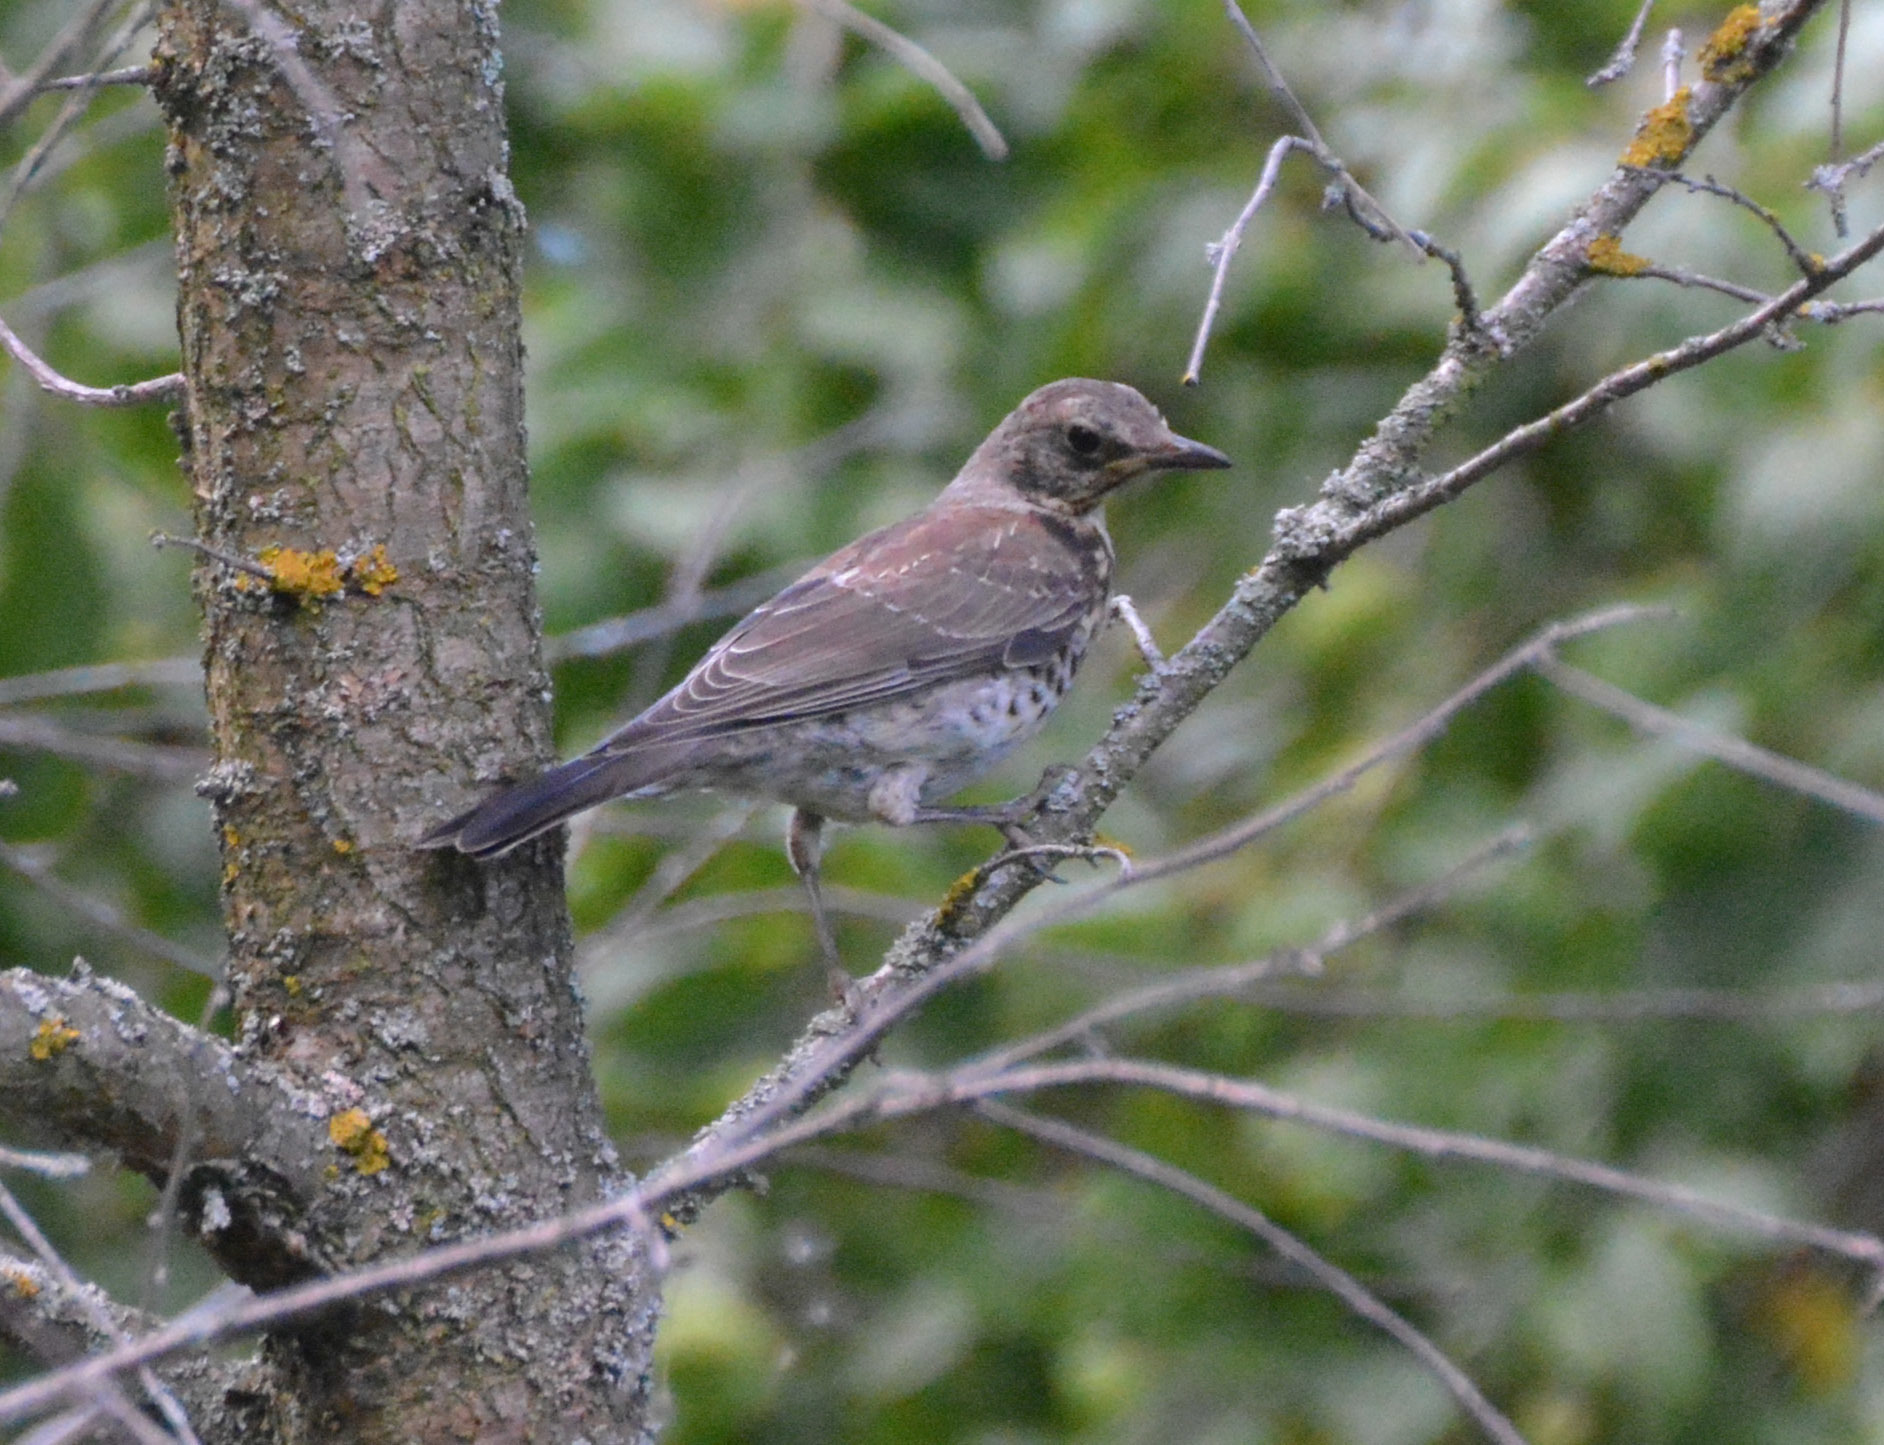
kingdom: Animalia
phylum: Chordata
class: Aves
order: Passeriformes
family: Turdidae
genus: Turdus
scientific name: Turdus pilaris
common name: Fieldfare
